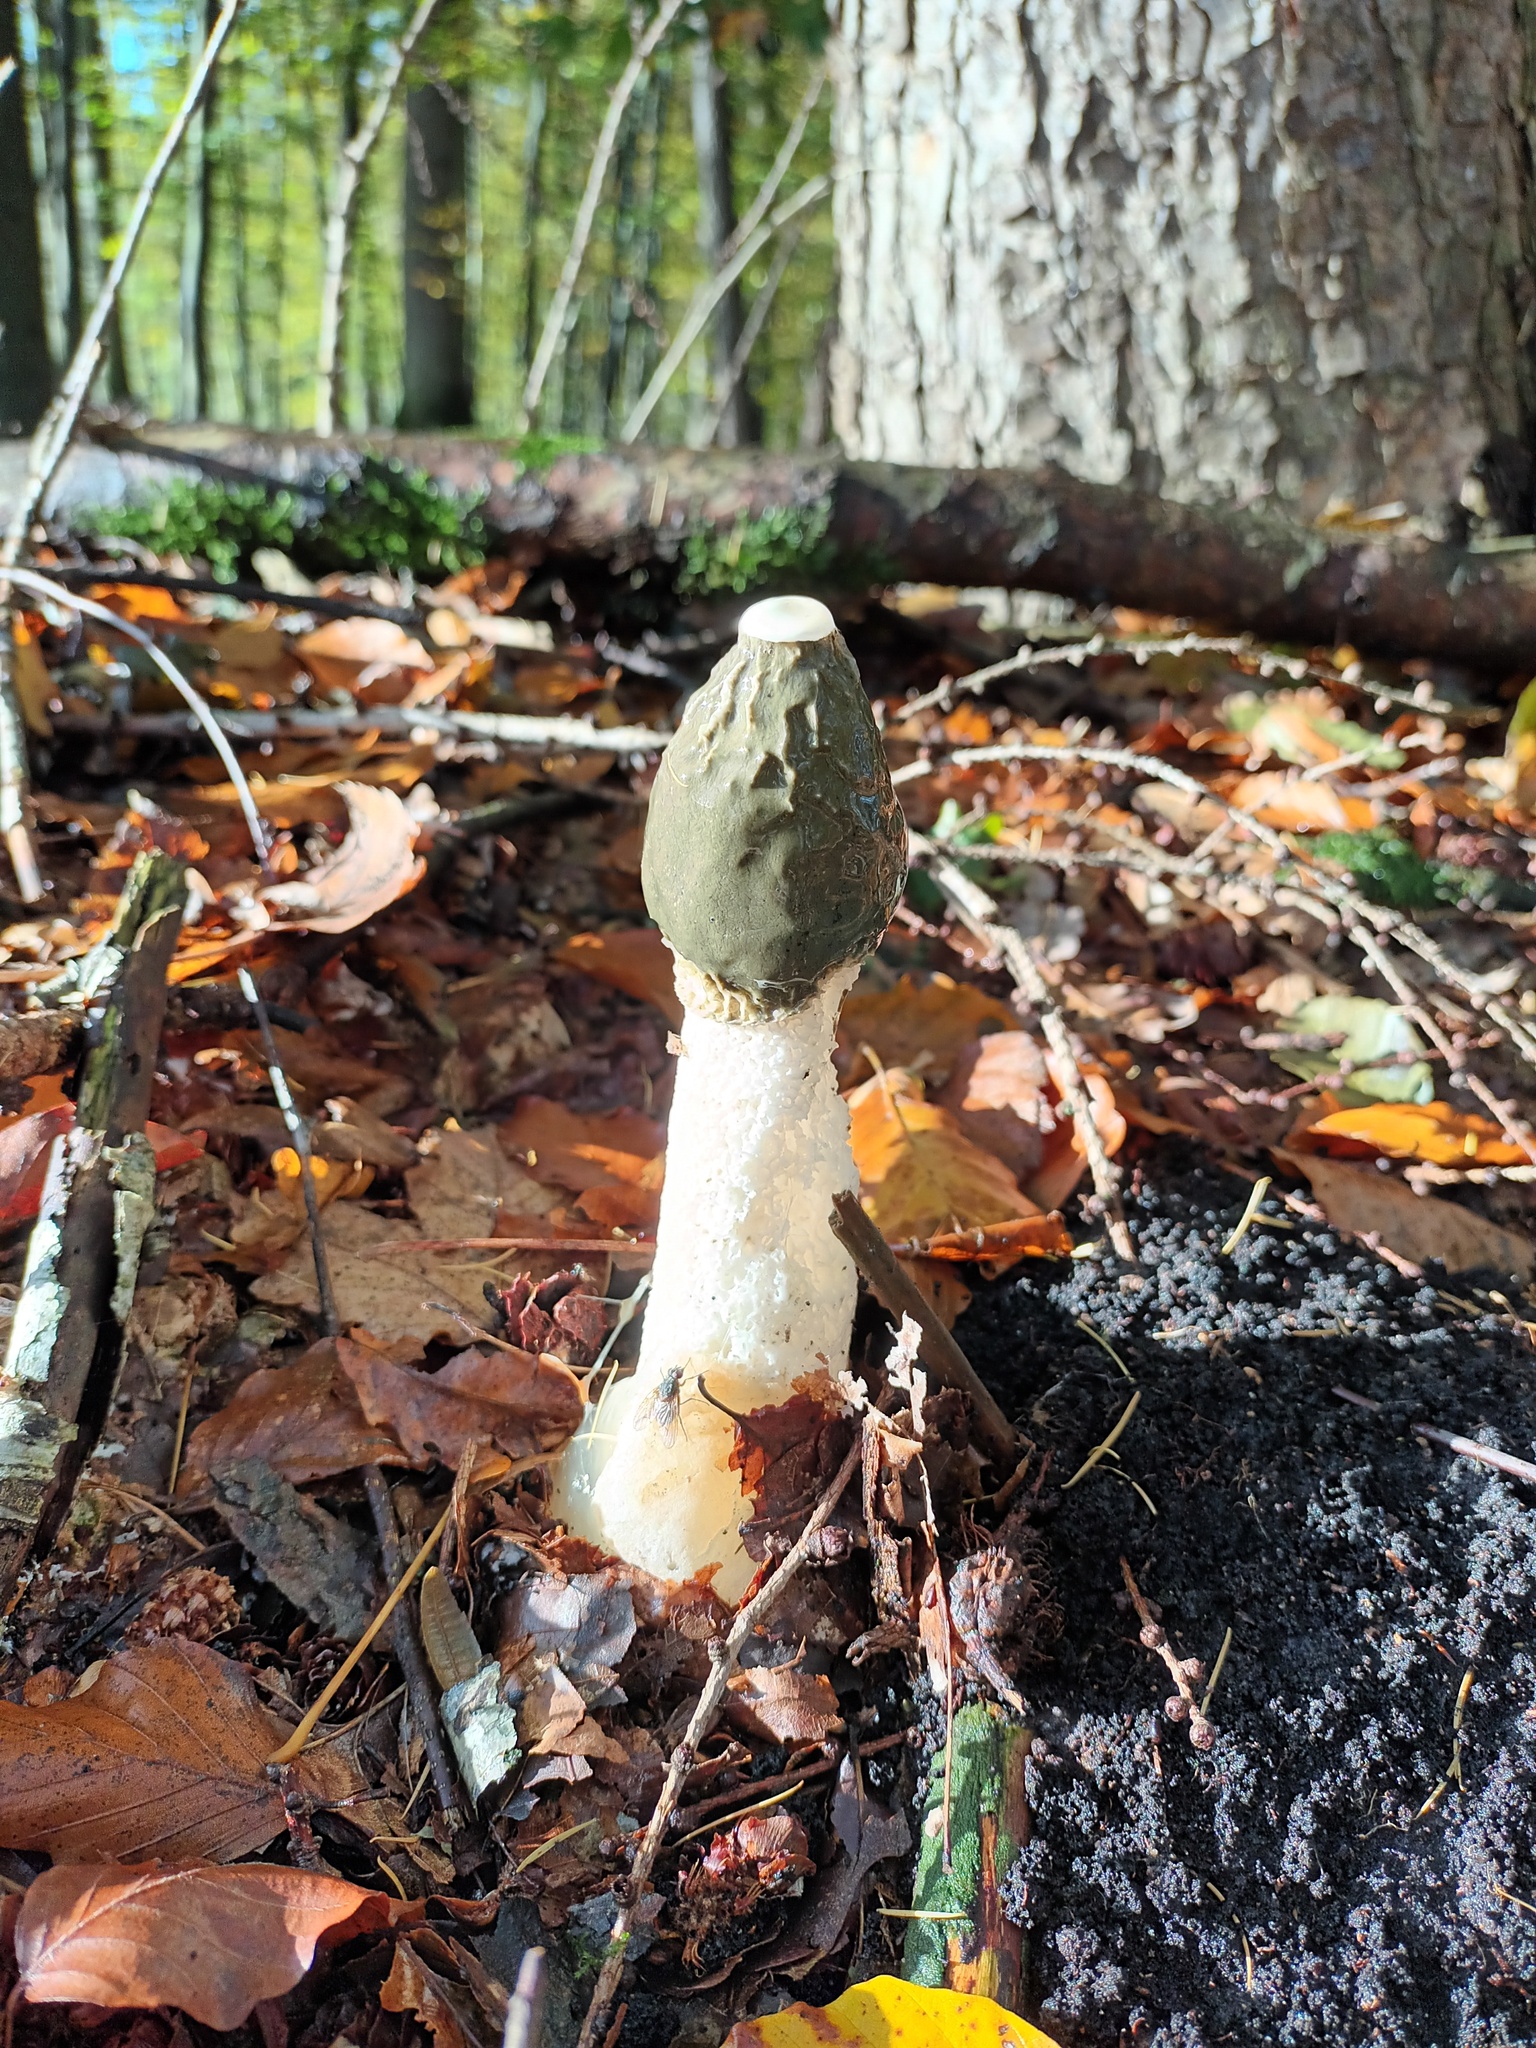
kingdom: Fungi
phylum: Basidiomycota
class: Agaricomycetes
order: Phallales
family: Phallaceae
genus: Phallus
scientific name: Phallus impudicus
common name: Common stinkhorn
